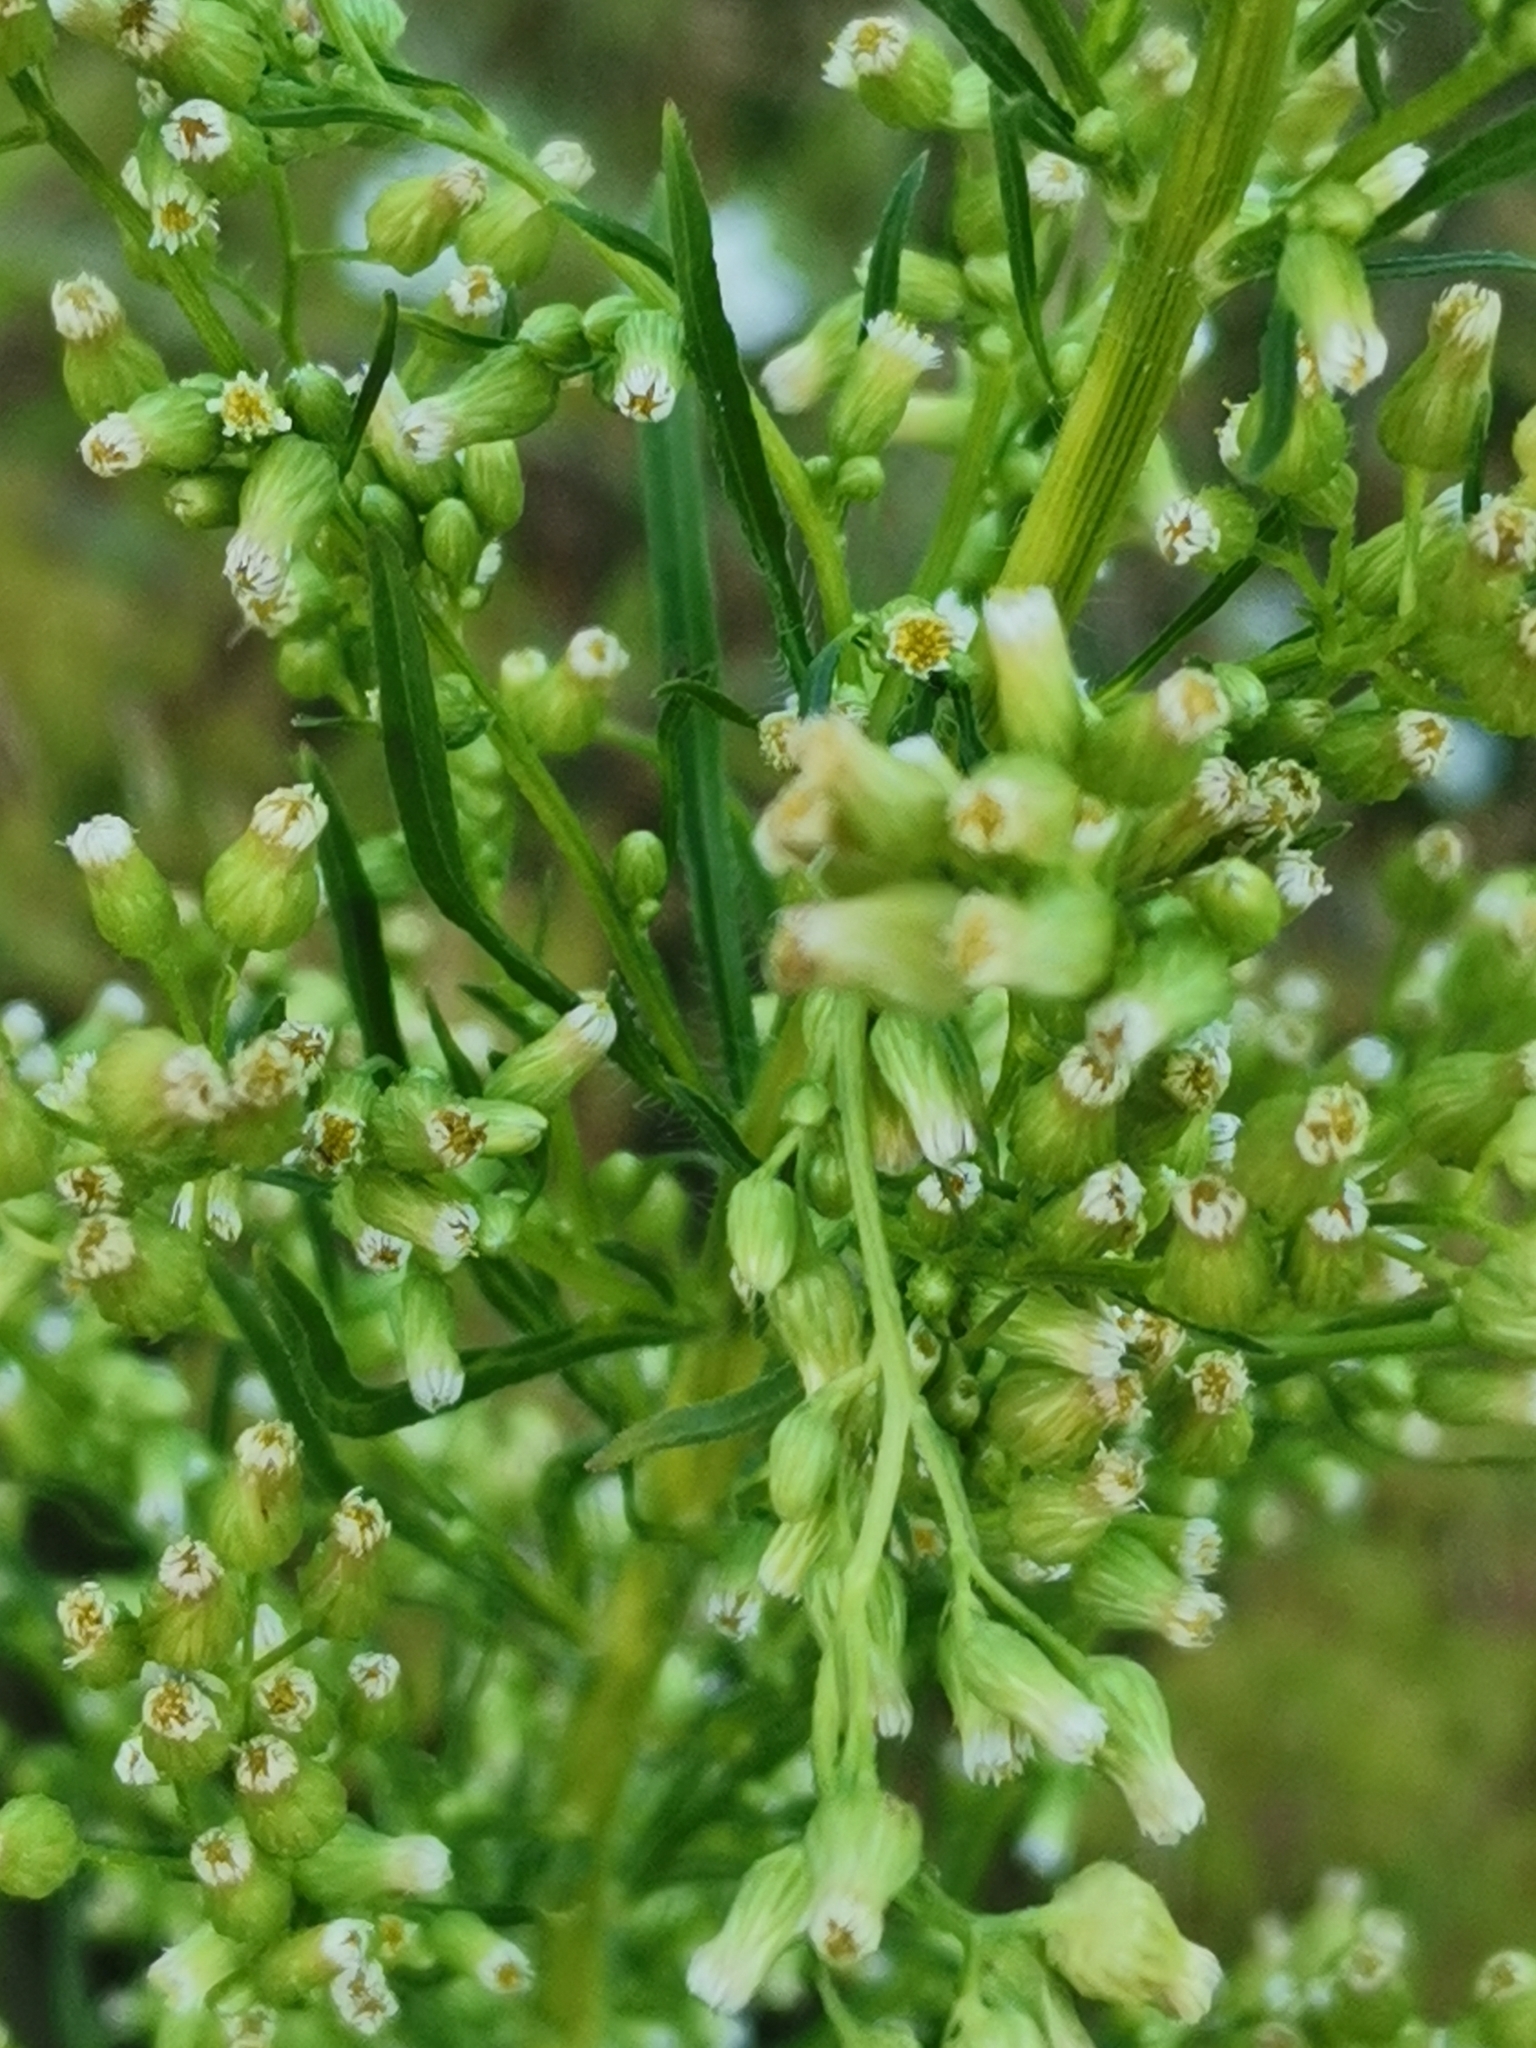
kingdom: Plantae
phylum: Tracheophyta
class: Magnoliopsida
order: Asterales
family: Asteraceae
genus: Erigeron
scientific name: Erigeron canadensis
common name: Canadian fleabane
